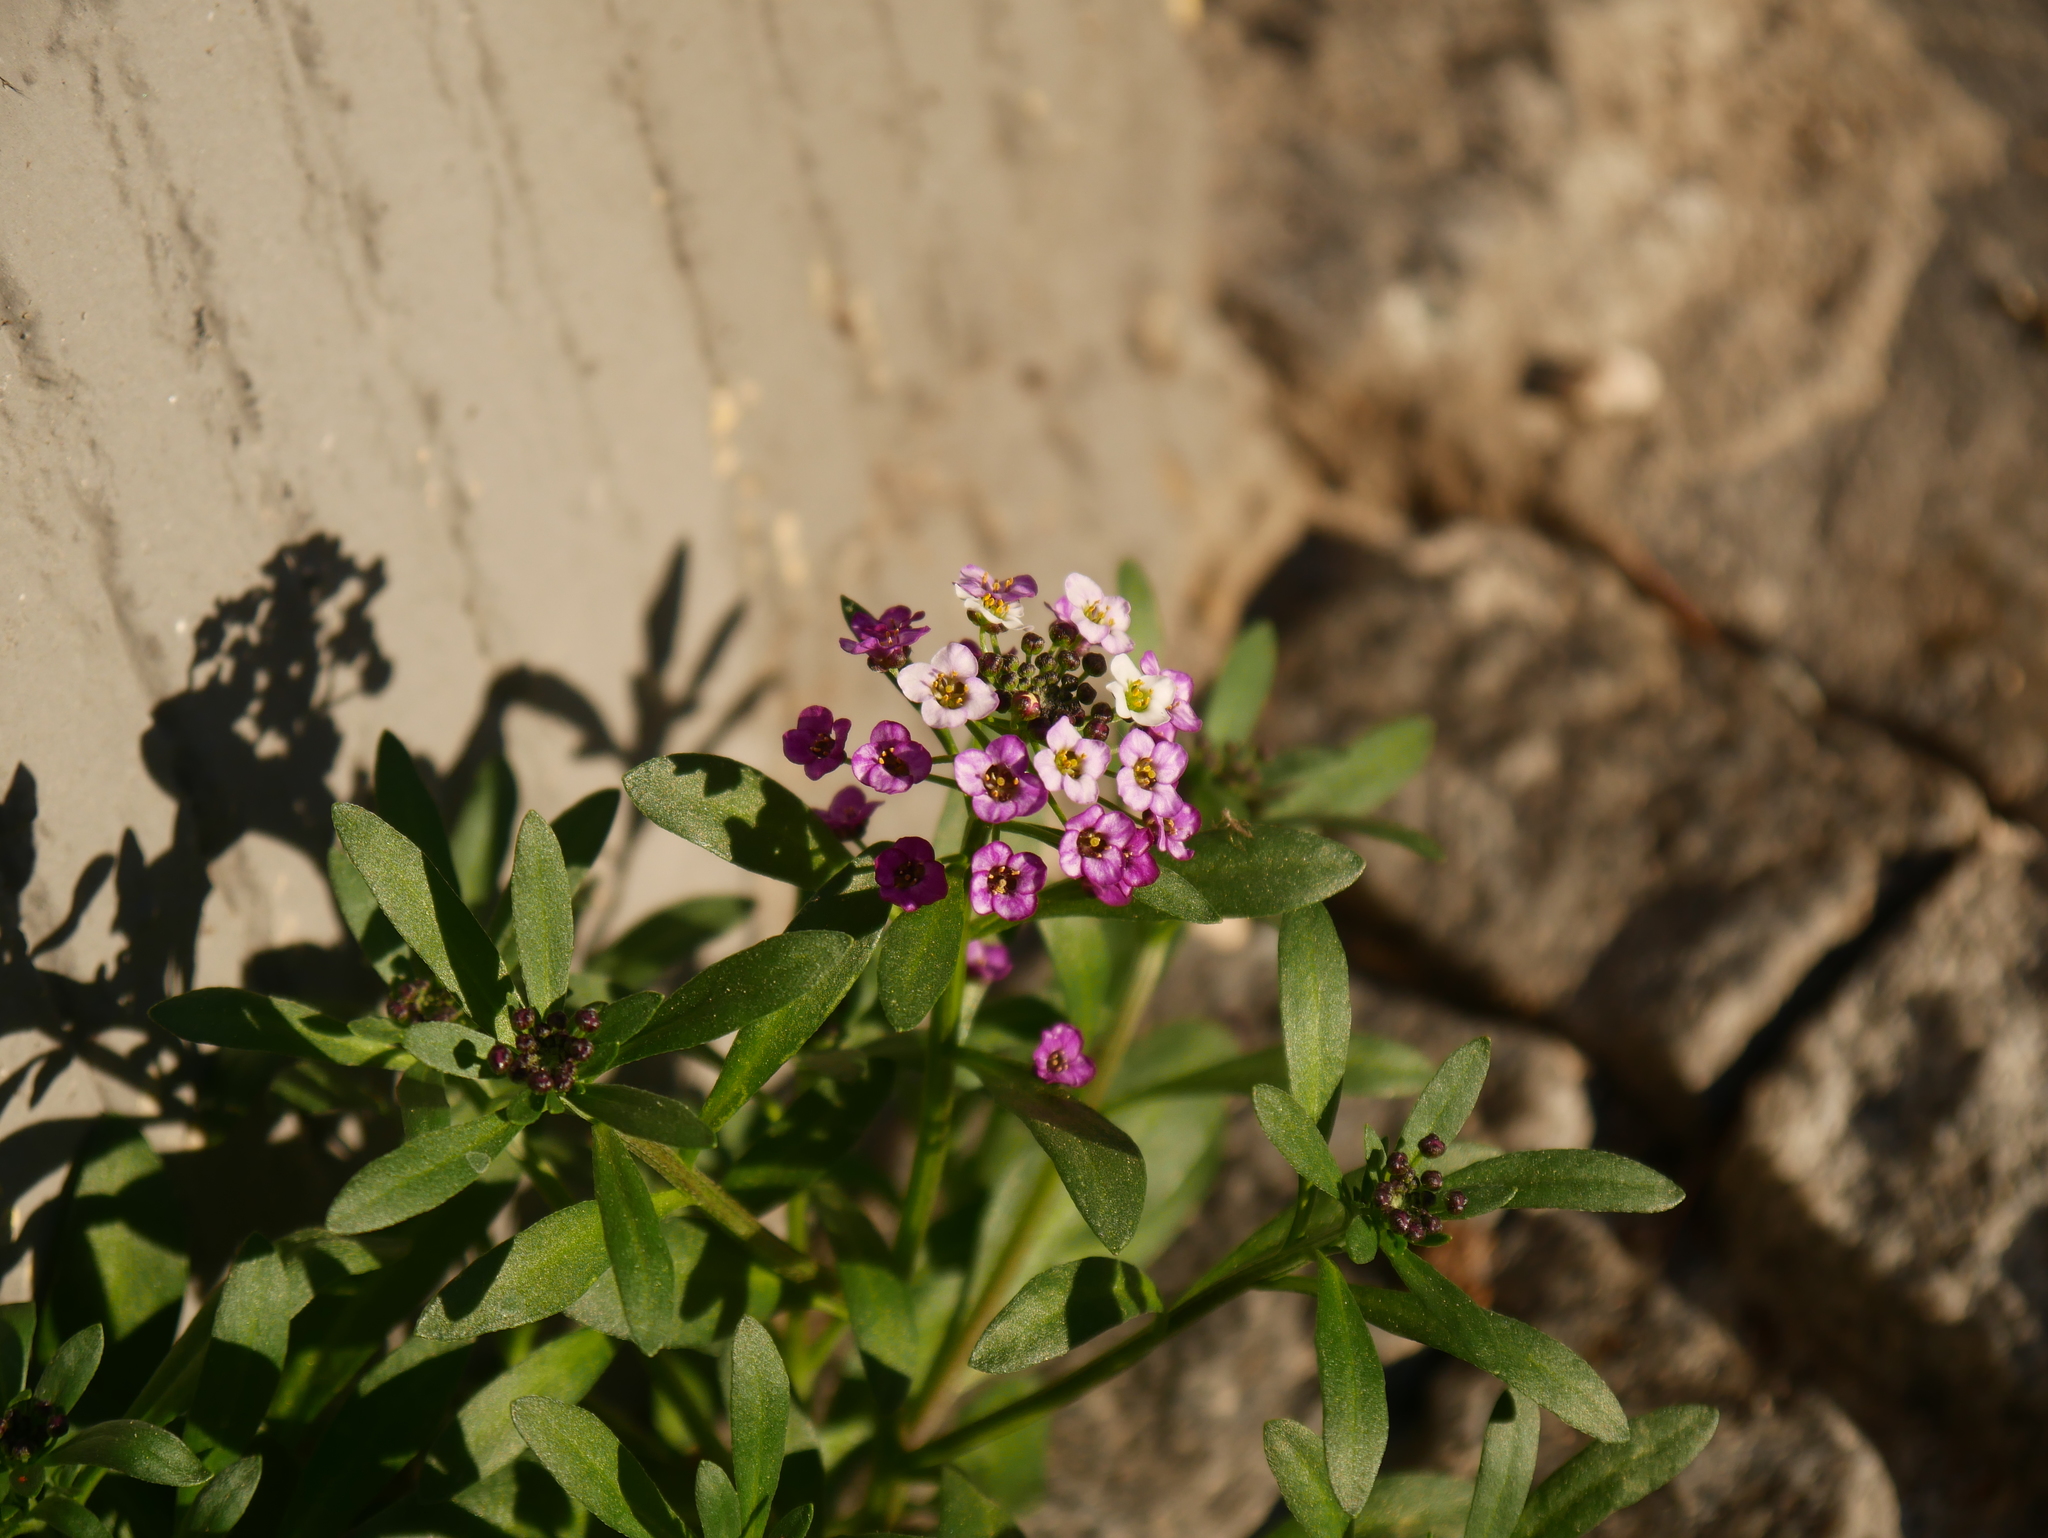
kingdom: Plantae
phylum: Tracheophyta
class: Magnoliopsida
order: Brassicales
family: Brassicaceae
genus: Lobularia
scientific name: Lobularia maritima
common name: Sweet alison
